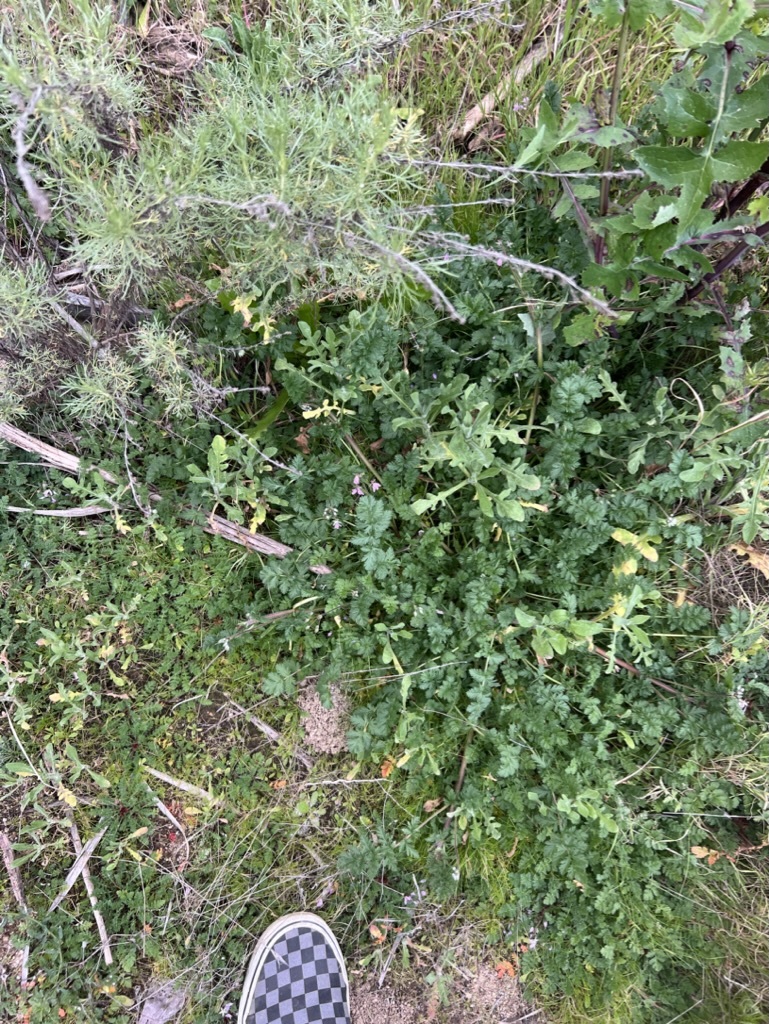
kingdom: Plantae
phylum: Tracheophyta
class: Magnoliopsida
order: Geraniales
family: Geraniaceae
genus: Erodium
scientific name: Erodium cicutarium
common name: Common stork's-bill
